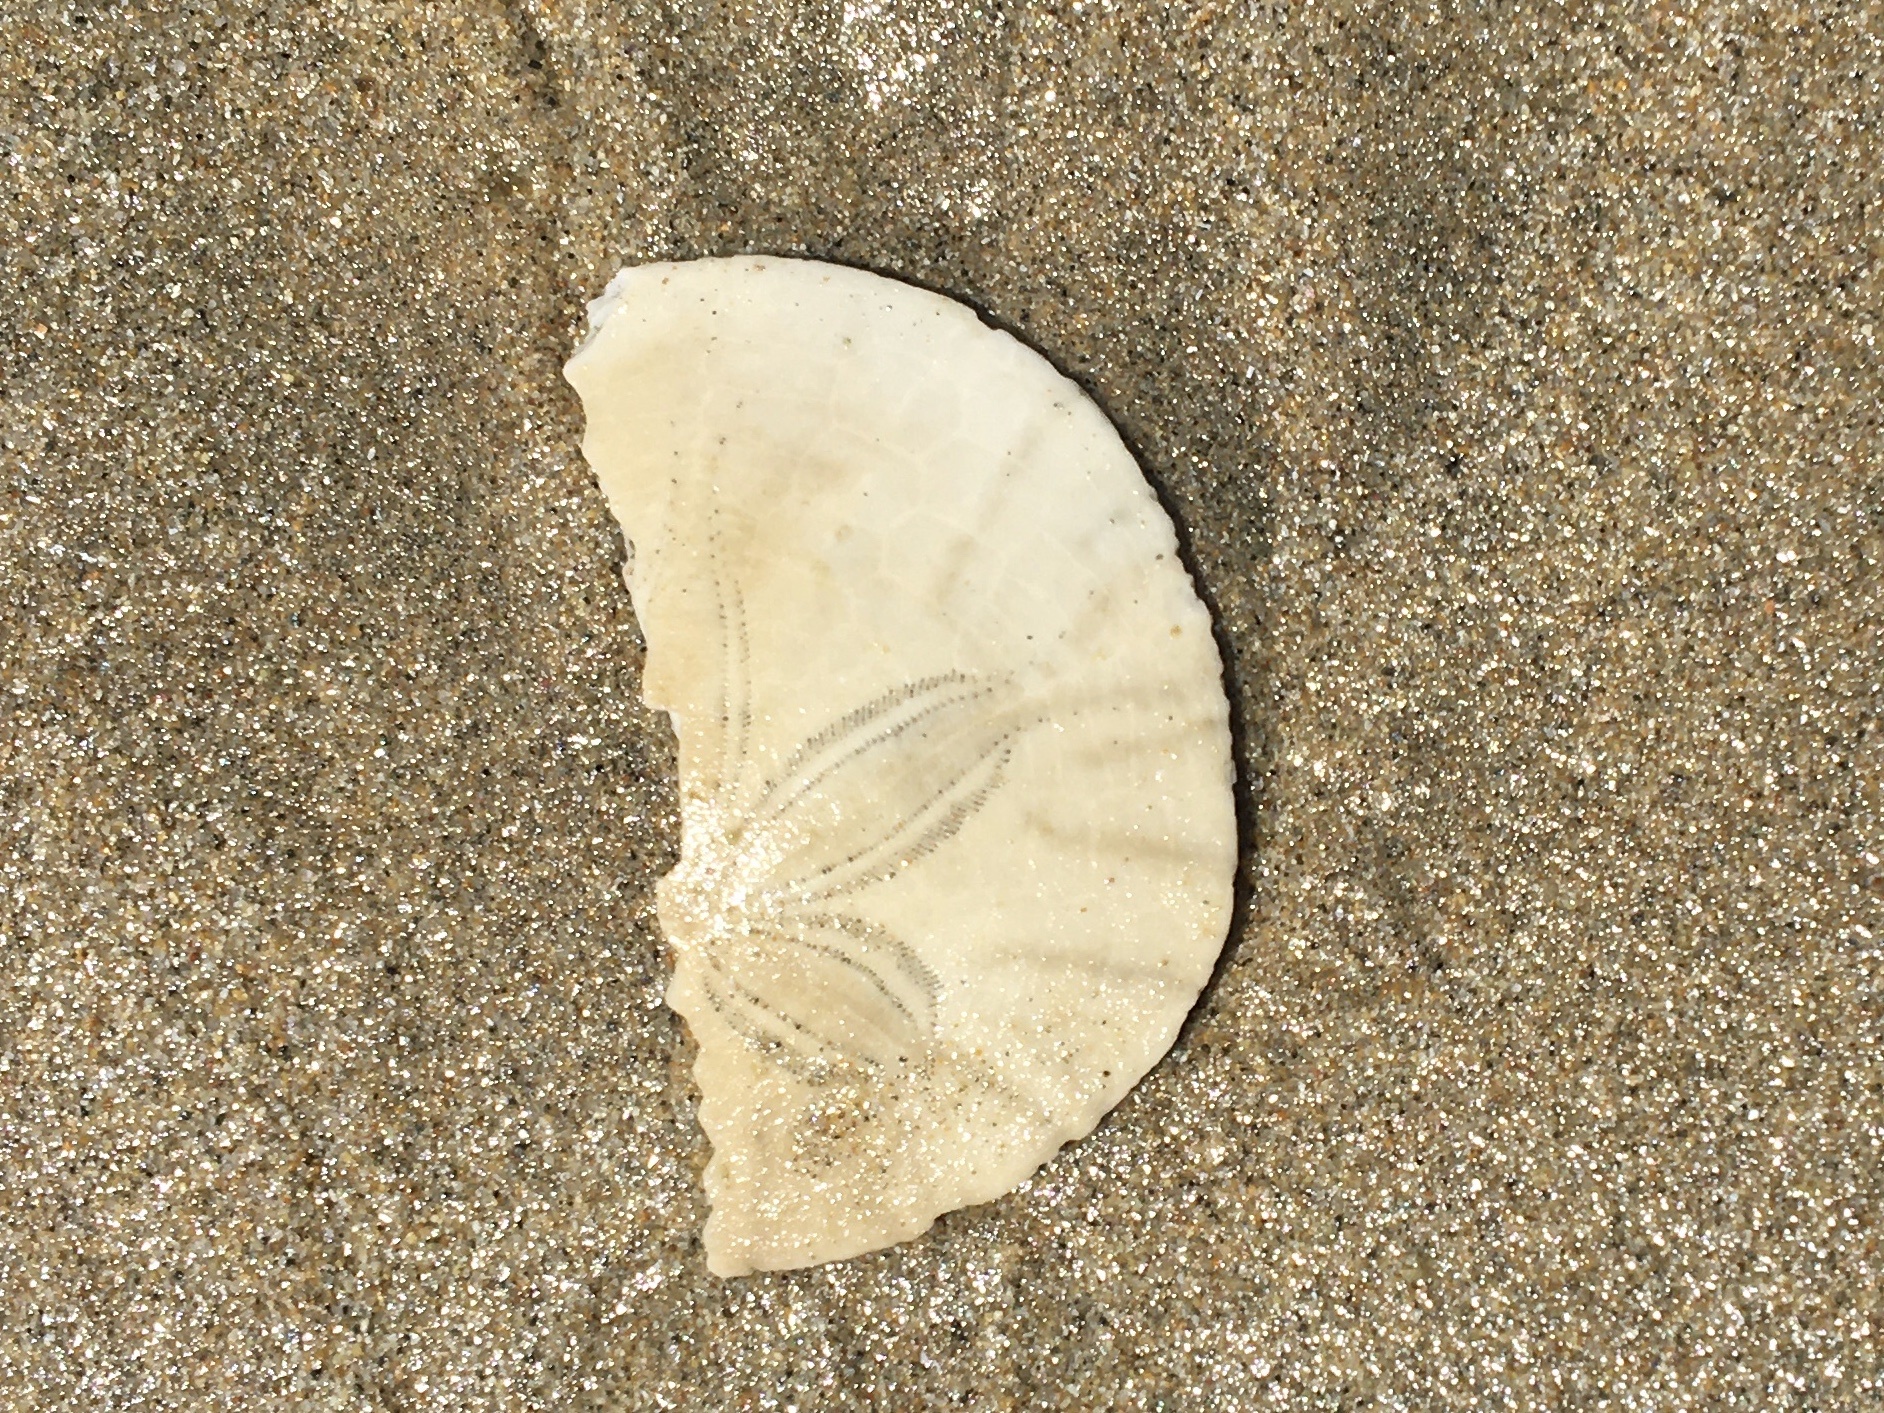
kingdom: Animalia
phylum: Echinodermata
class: Echinoidea
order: Echinolampadacea
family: Dendrasteridae
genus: Dendraster
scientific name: Dendraster excentricus
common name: Eccentric sand dollar sea urchin
